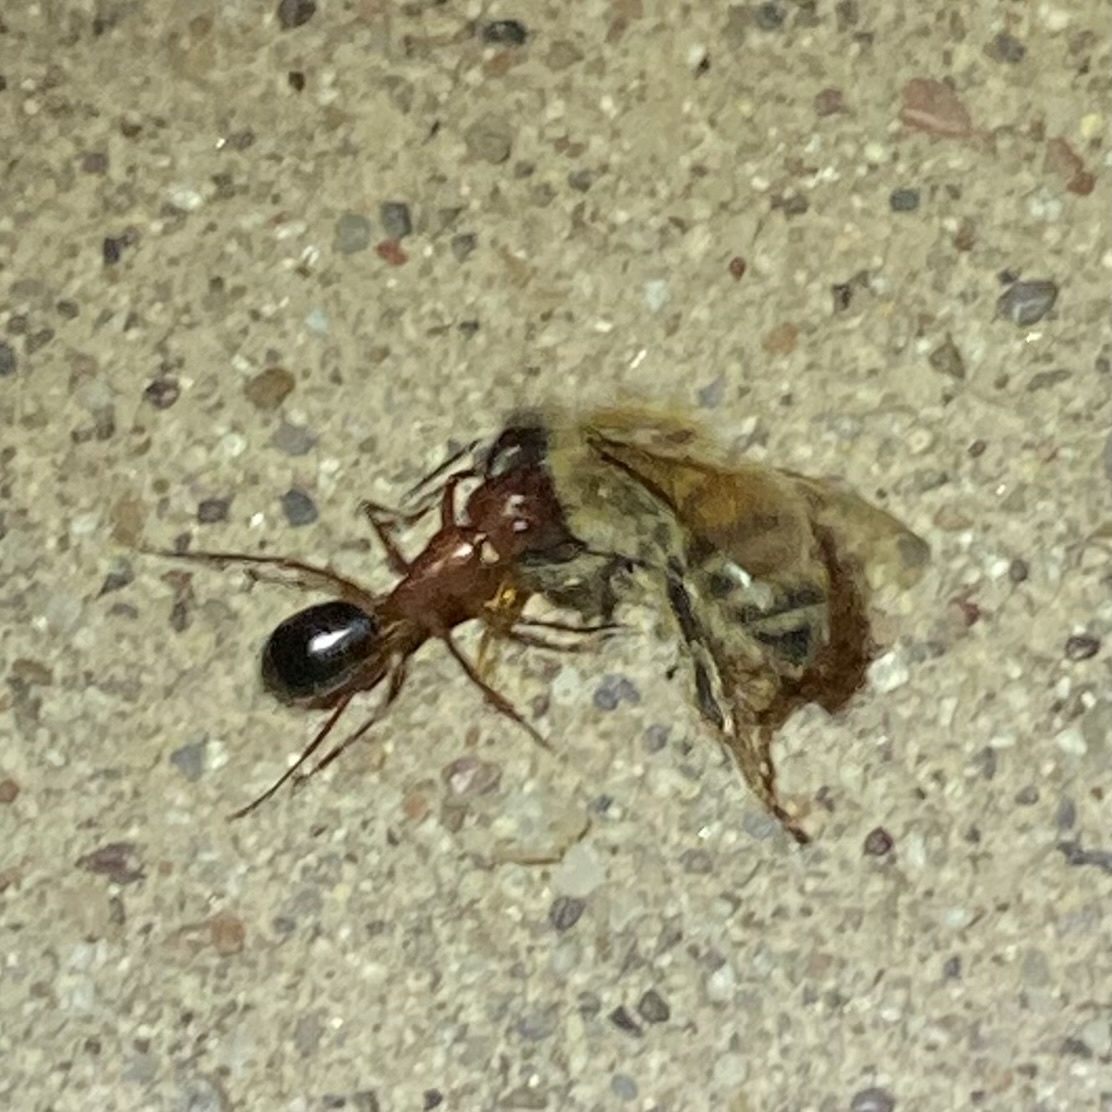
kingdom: Animalia
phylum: Arthropoda
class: Insecta
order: Hymenoptera
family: Formicidae
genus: Camponotus
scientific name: Camponotus
